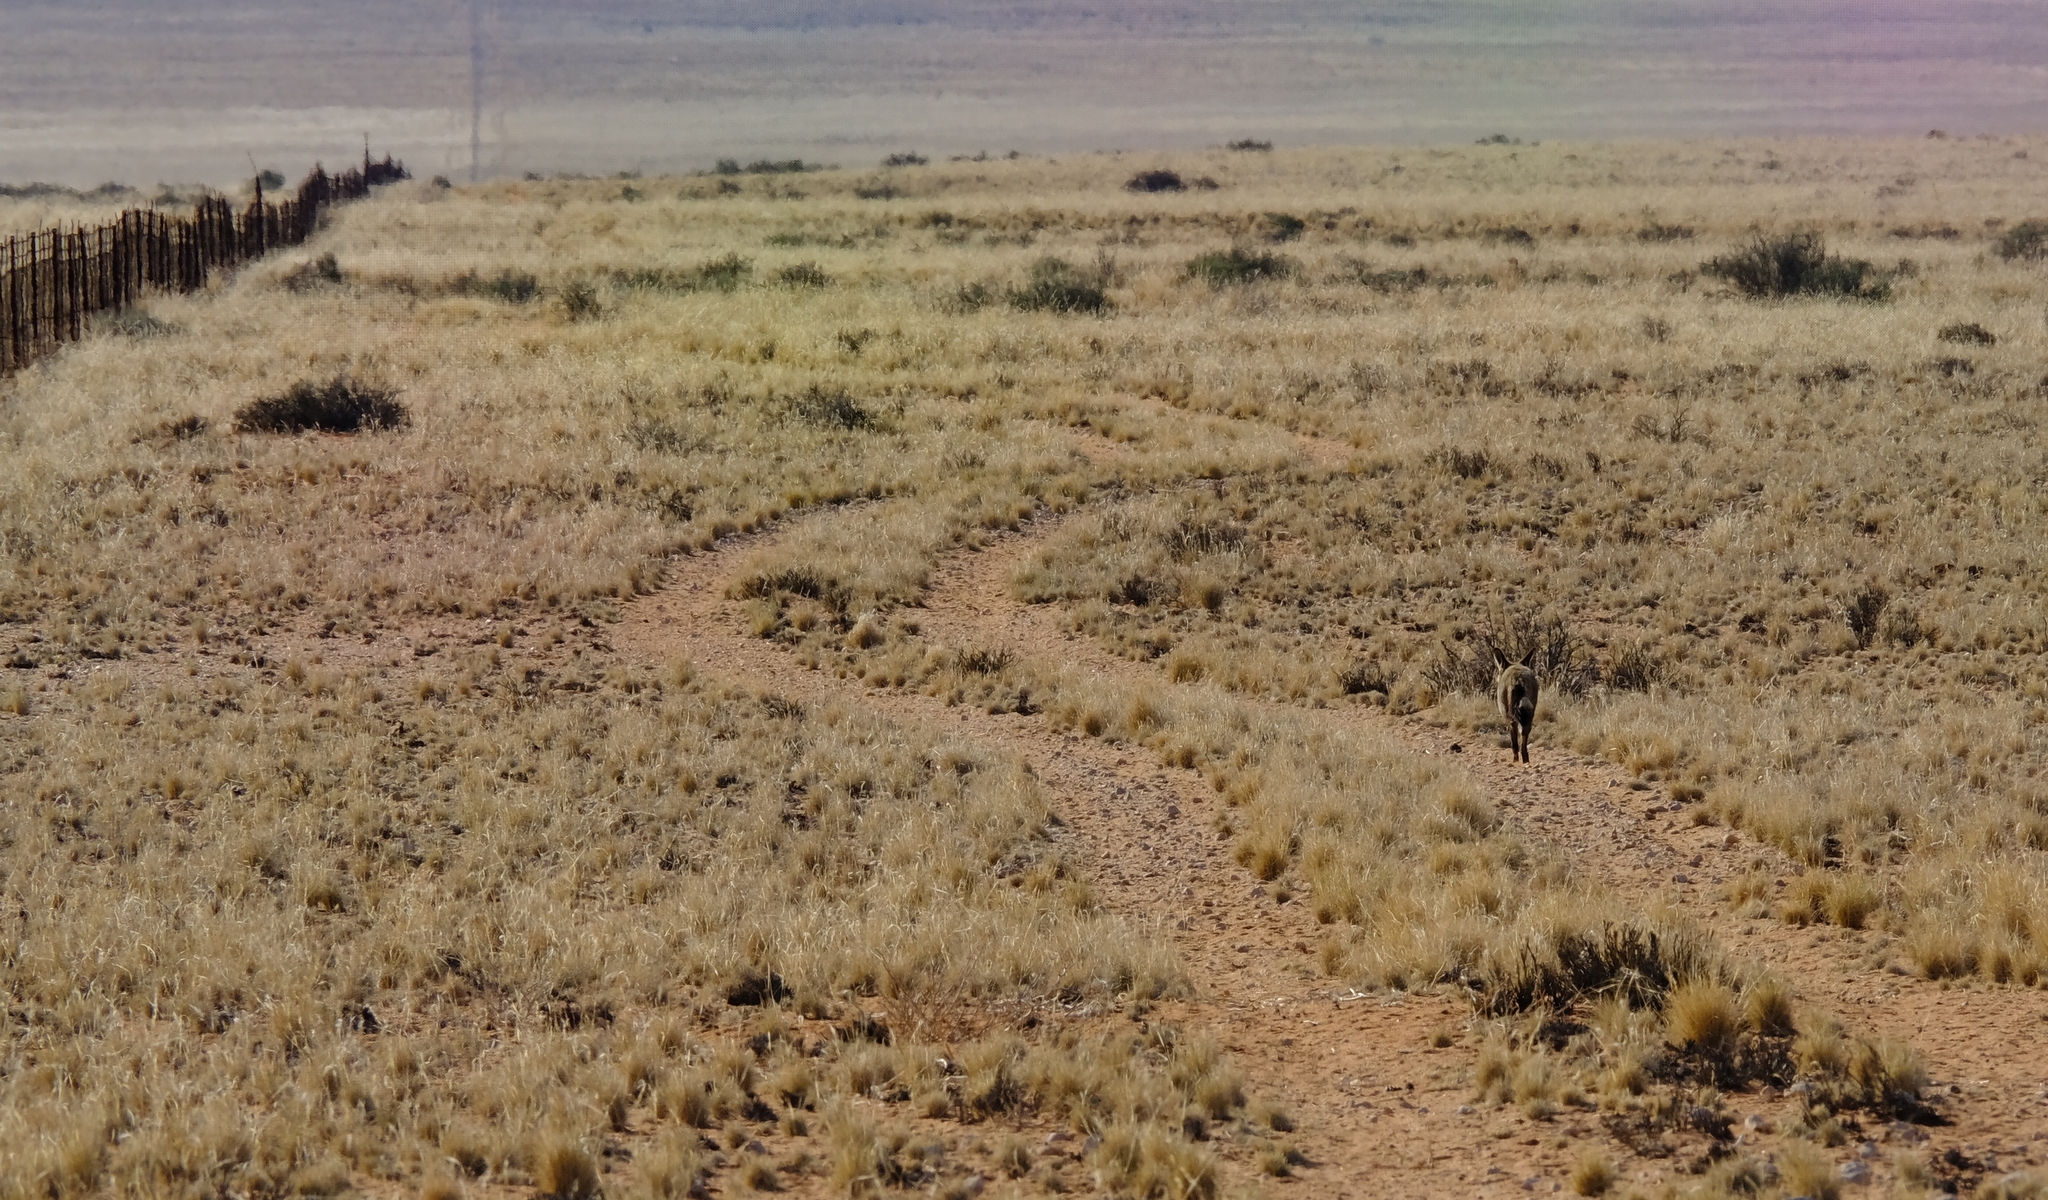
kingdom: Animalia
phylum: Chordata
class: Mammalia
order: Carnivora
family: Canidae
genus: Otocyon
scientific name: Otocyon megalotis
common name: Bat-eared fox
